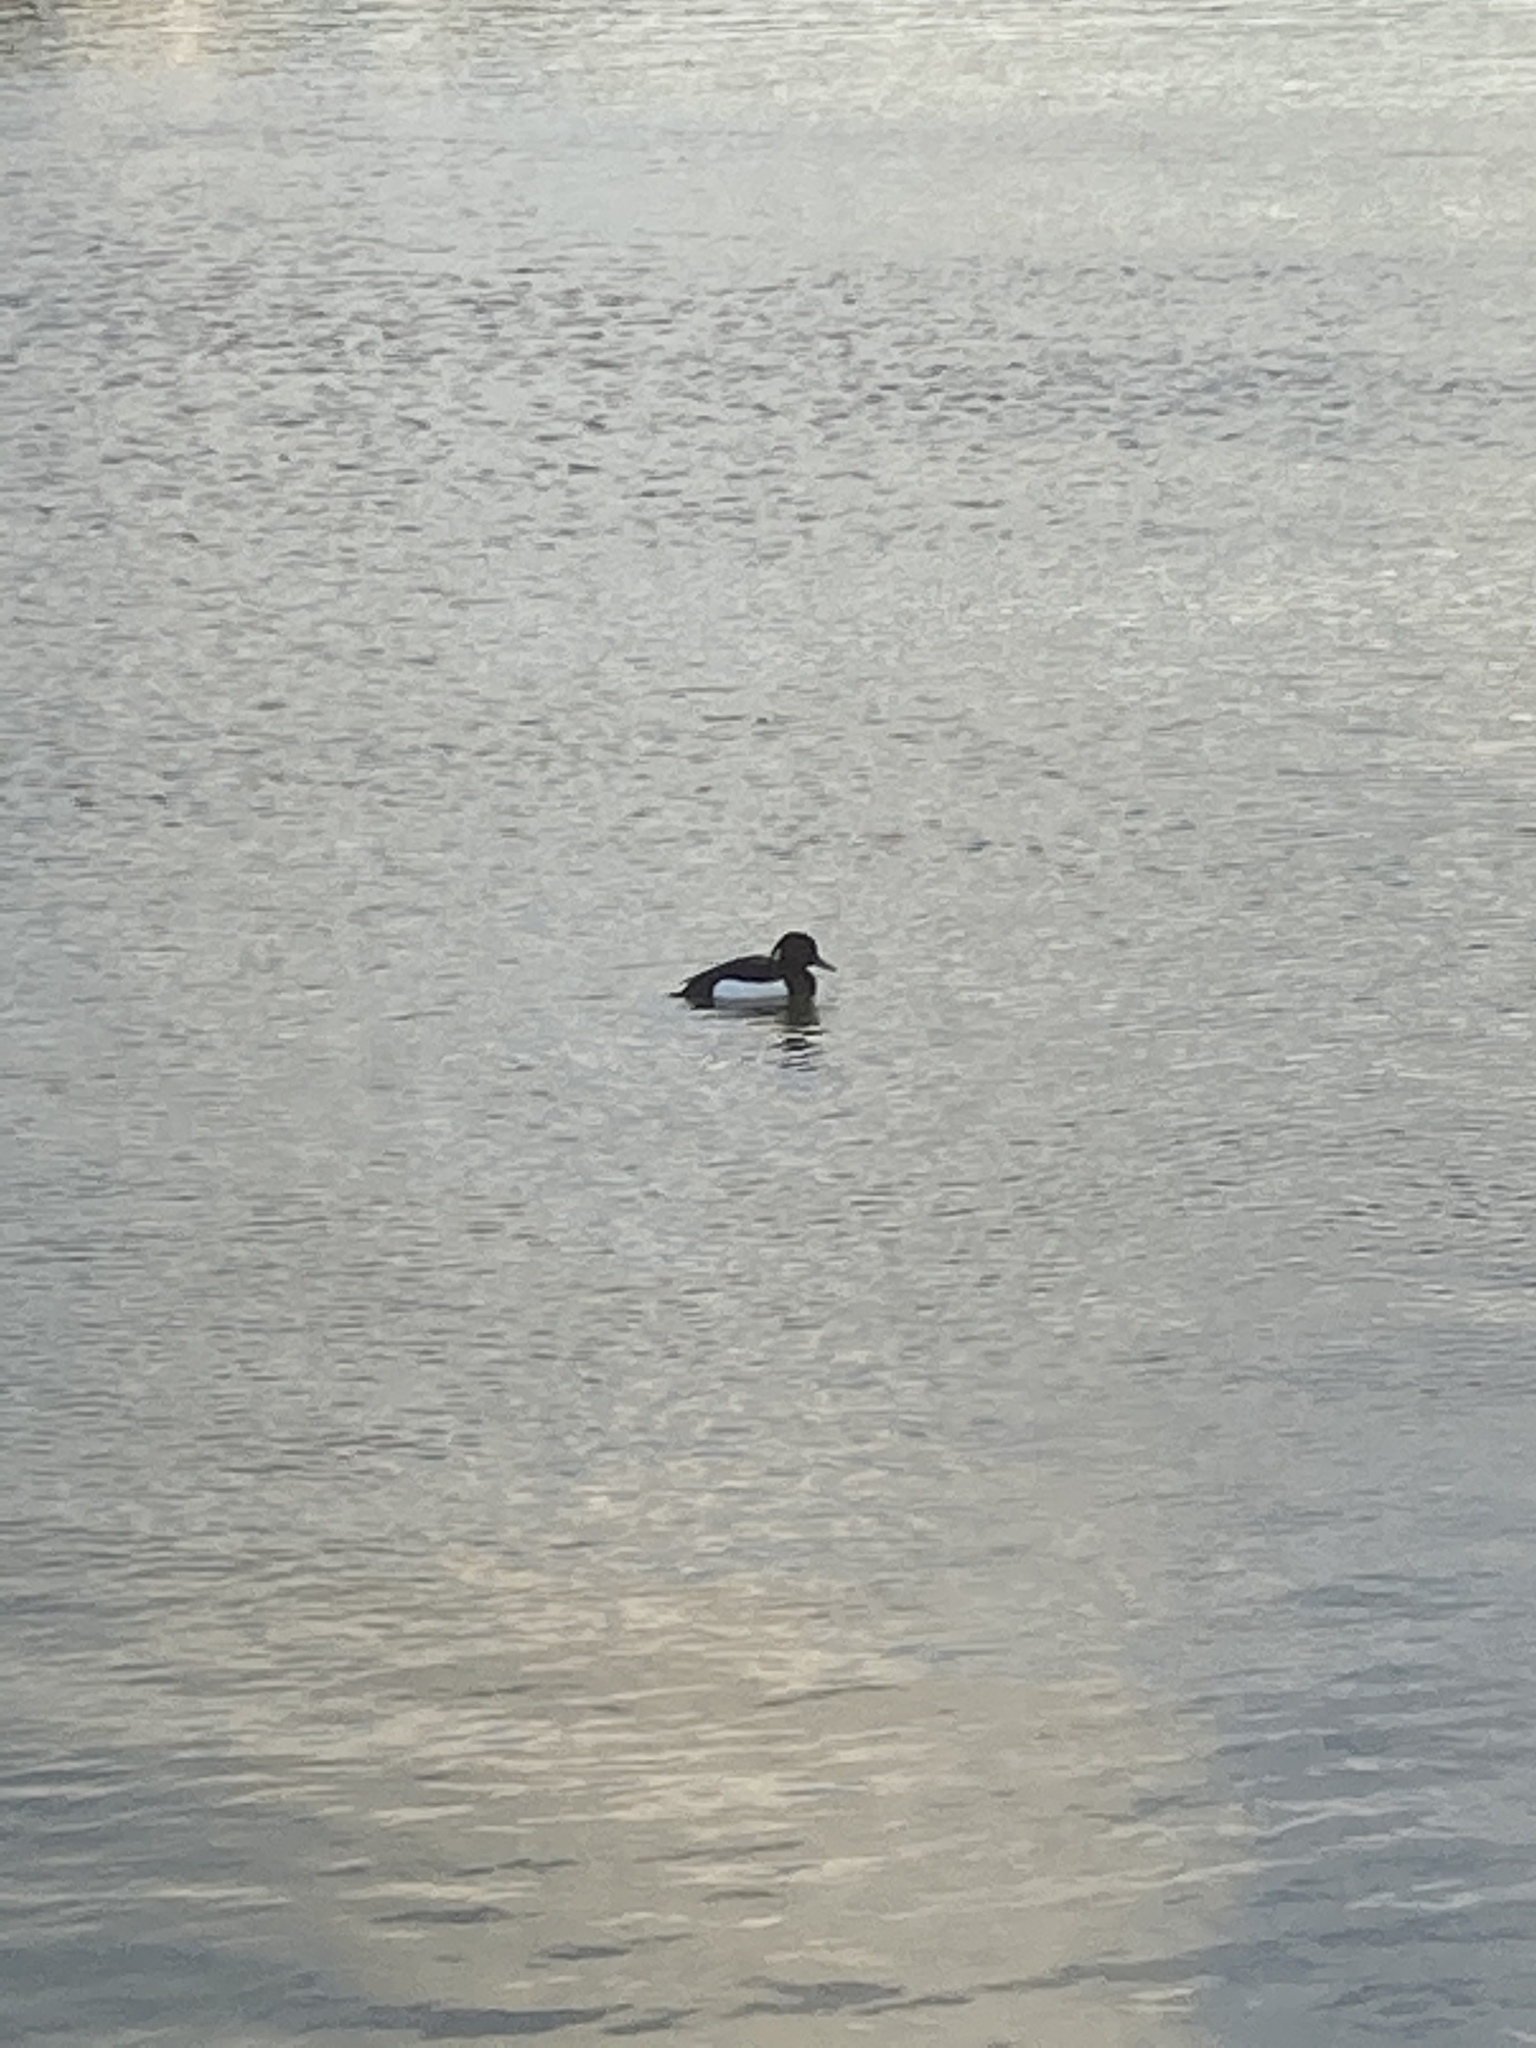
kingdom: Animalia
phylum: Chordata
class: Aves
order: Anseriformes
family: Anatidae
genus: Aythya
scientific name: Aythya fuligula
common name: Tufted duck
